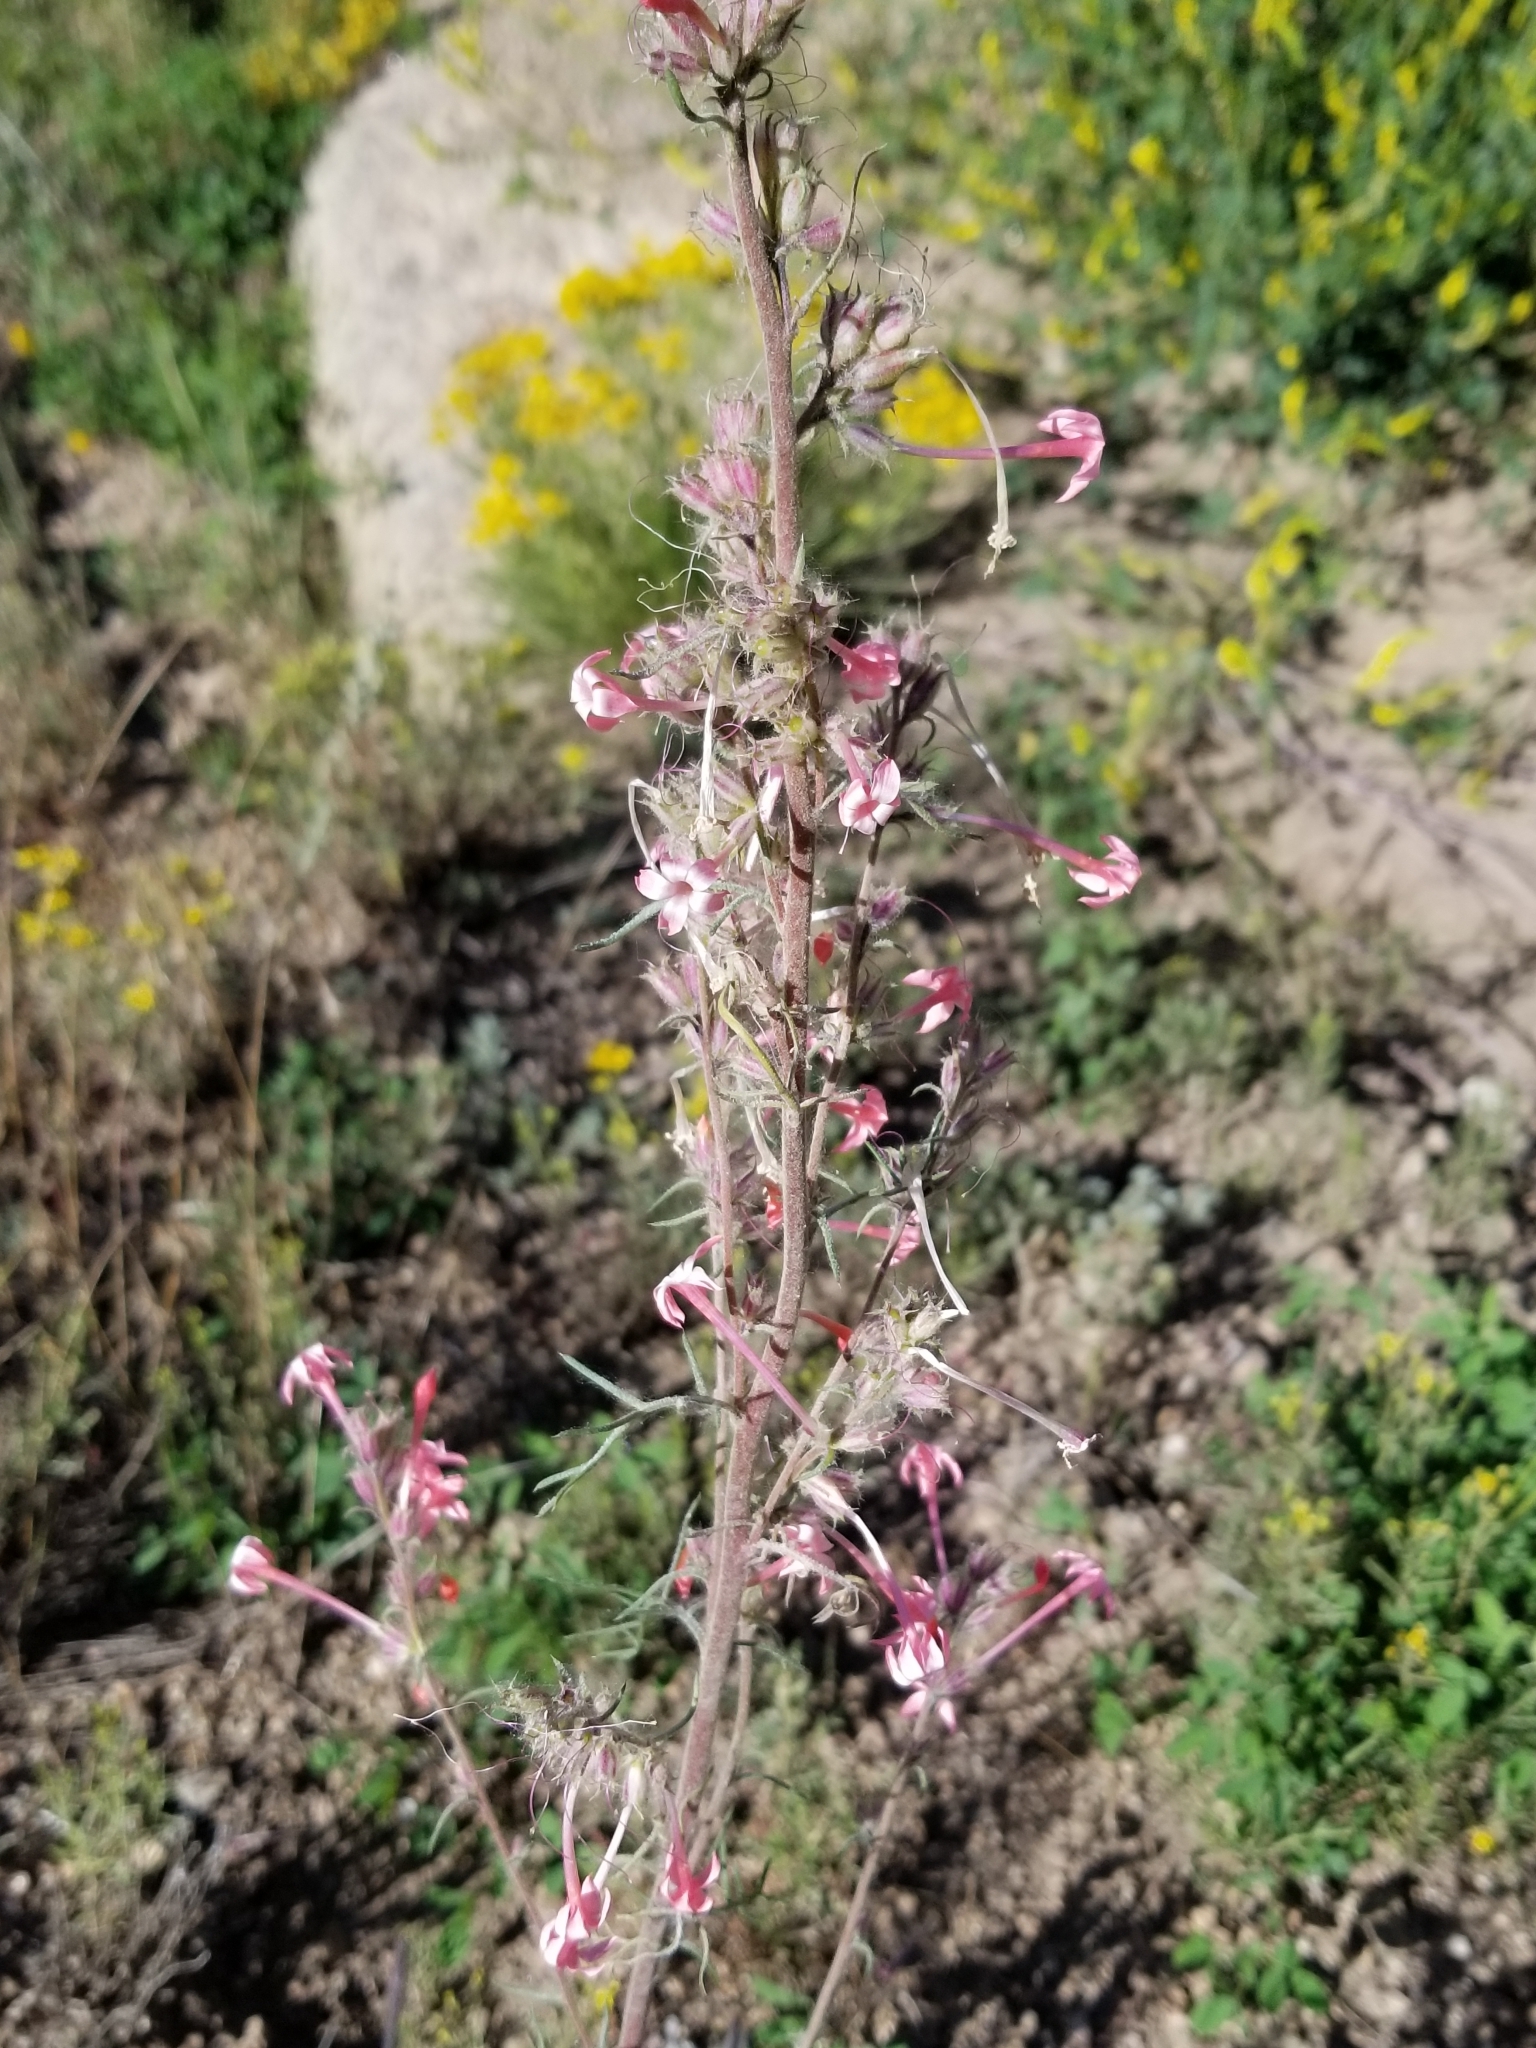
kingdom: Plantae
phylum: Tracheophyta
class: Magnoliopsida
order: Ericales
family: Polemoniaceae
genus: Ipomopsis
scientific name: Ipomopsis tenuituba
